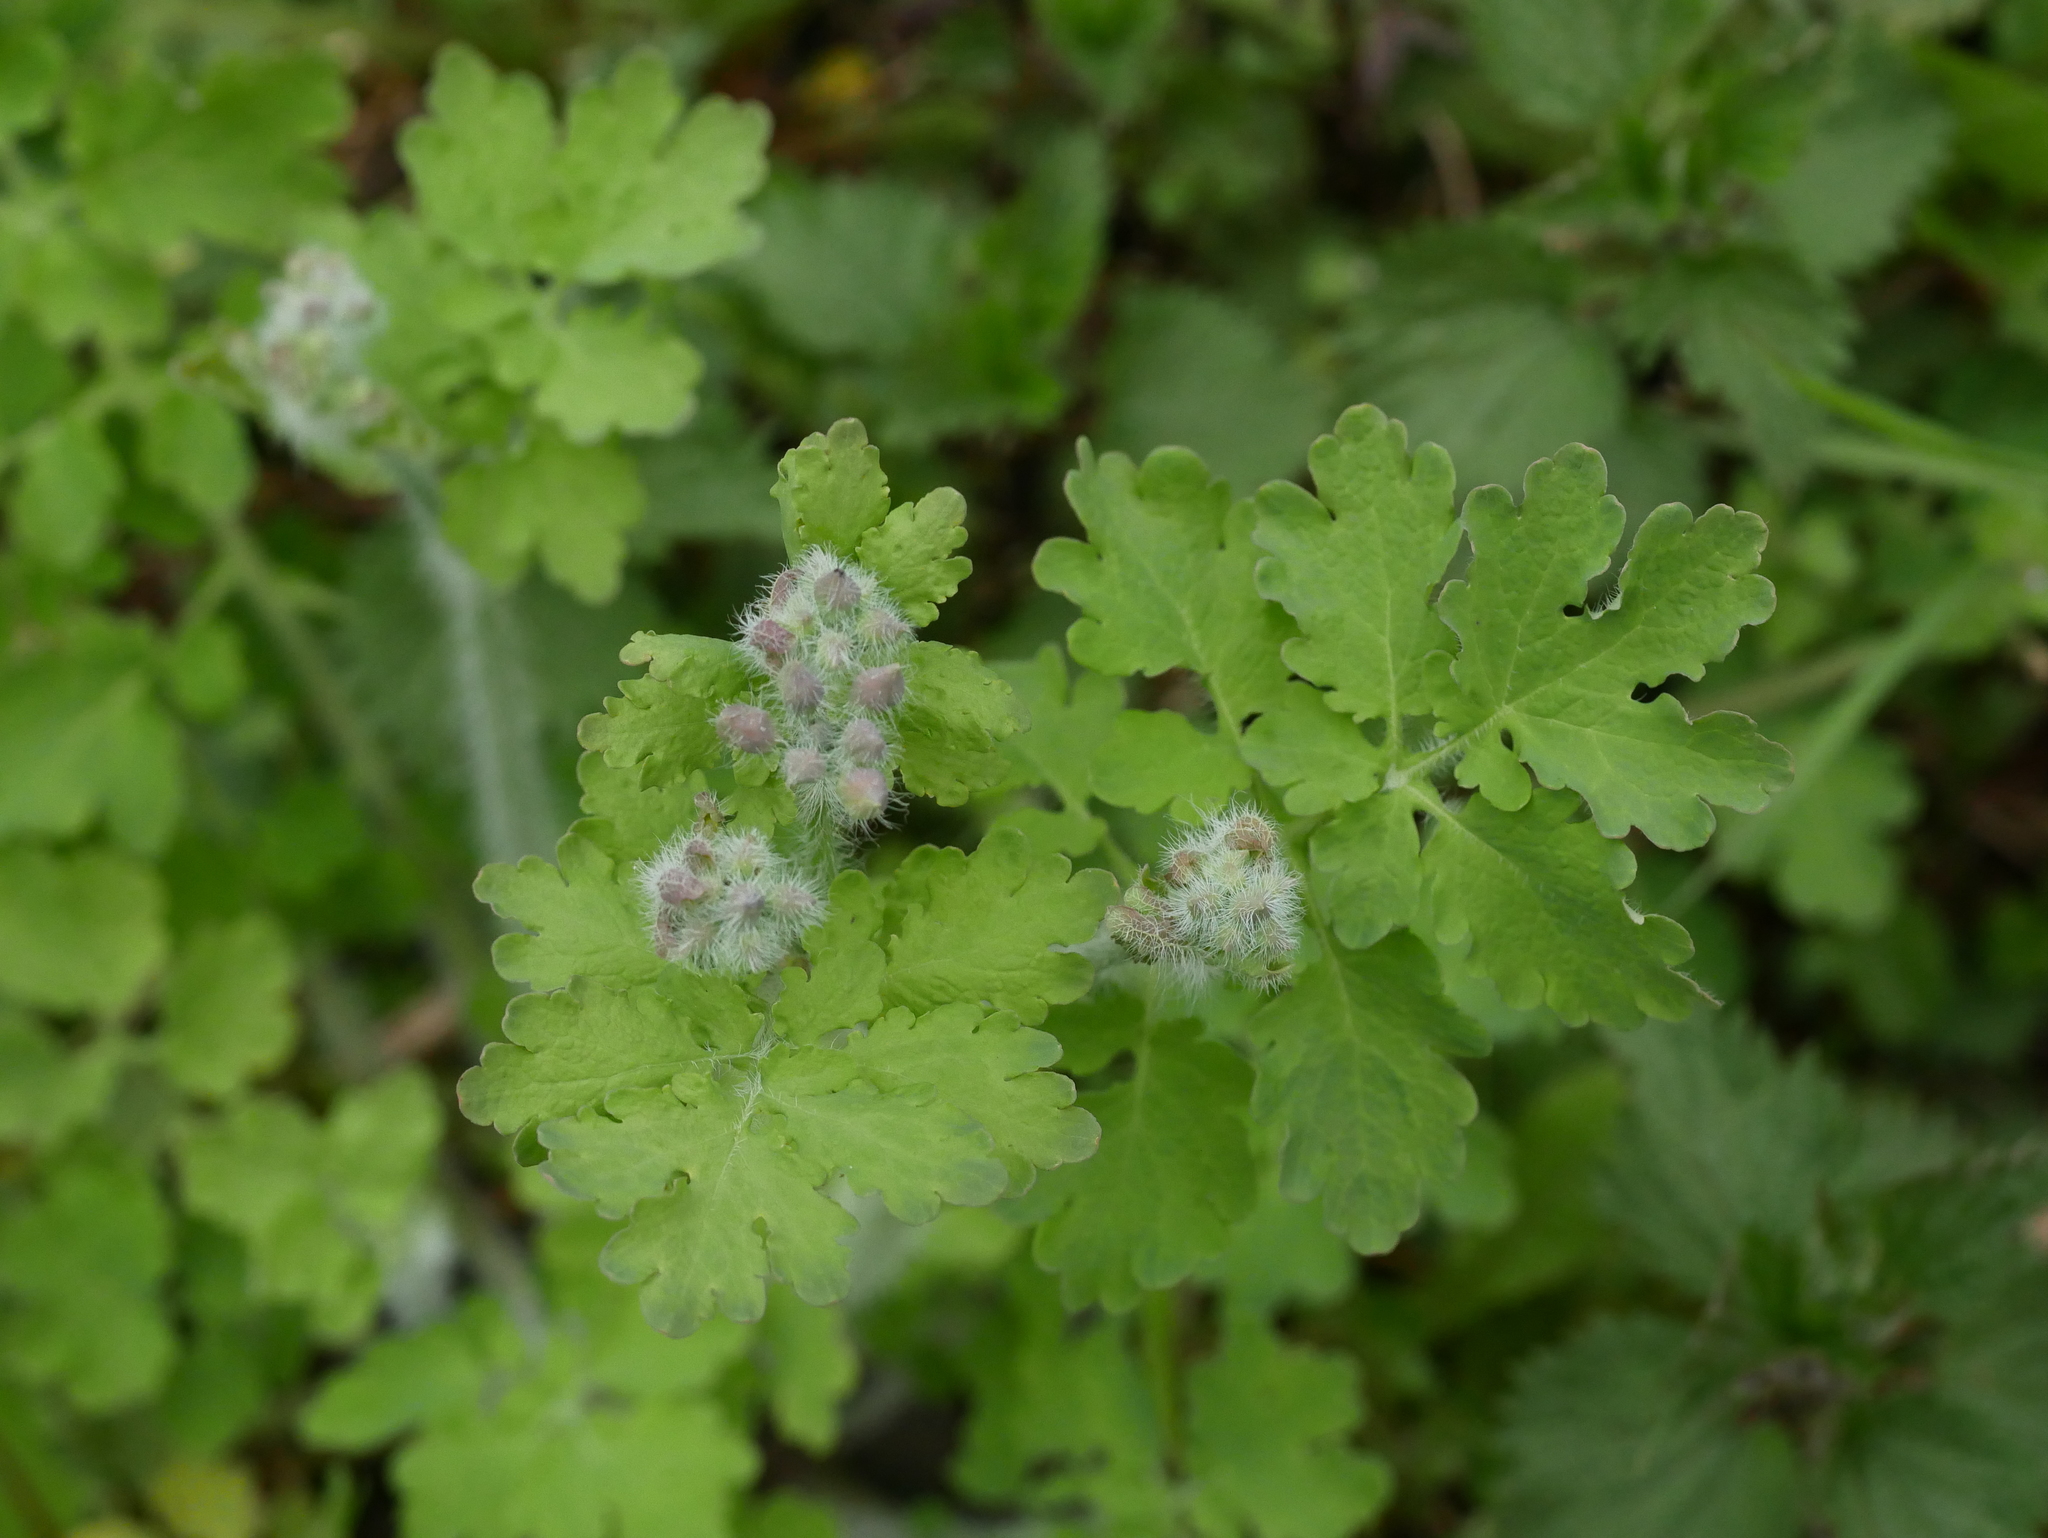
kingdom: Plantae
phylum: Tracheophyta
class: Magnoliopsida
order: Ranunculales
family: Papaveraceae
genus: Chelidonium
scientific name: Chelidonium majus
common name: Greater celandine
